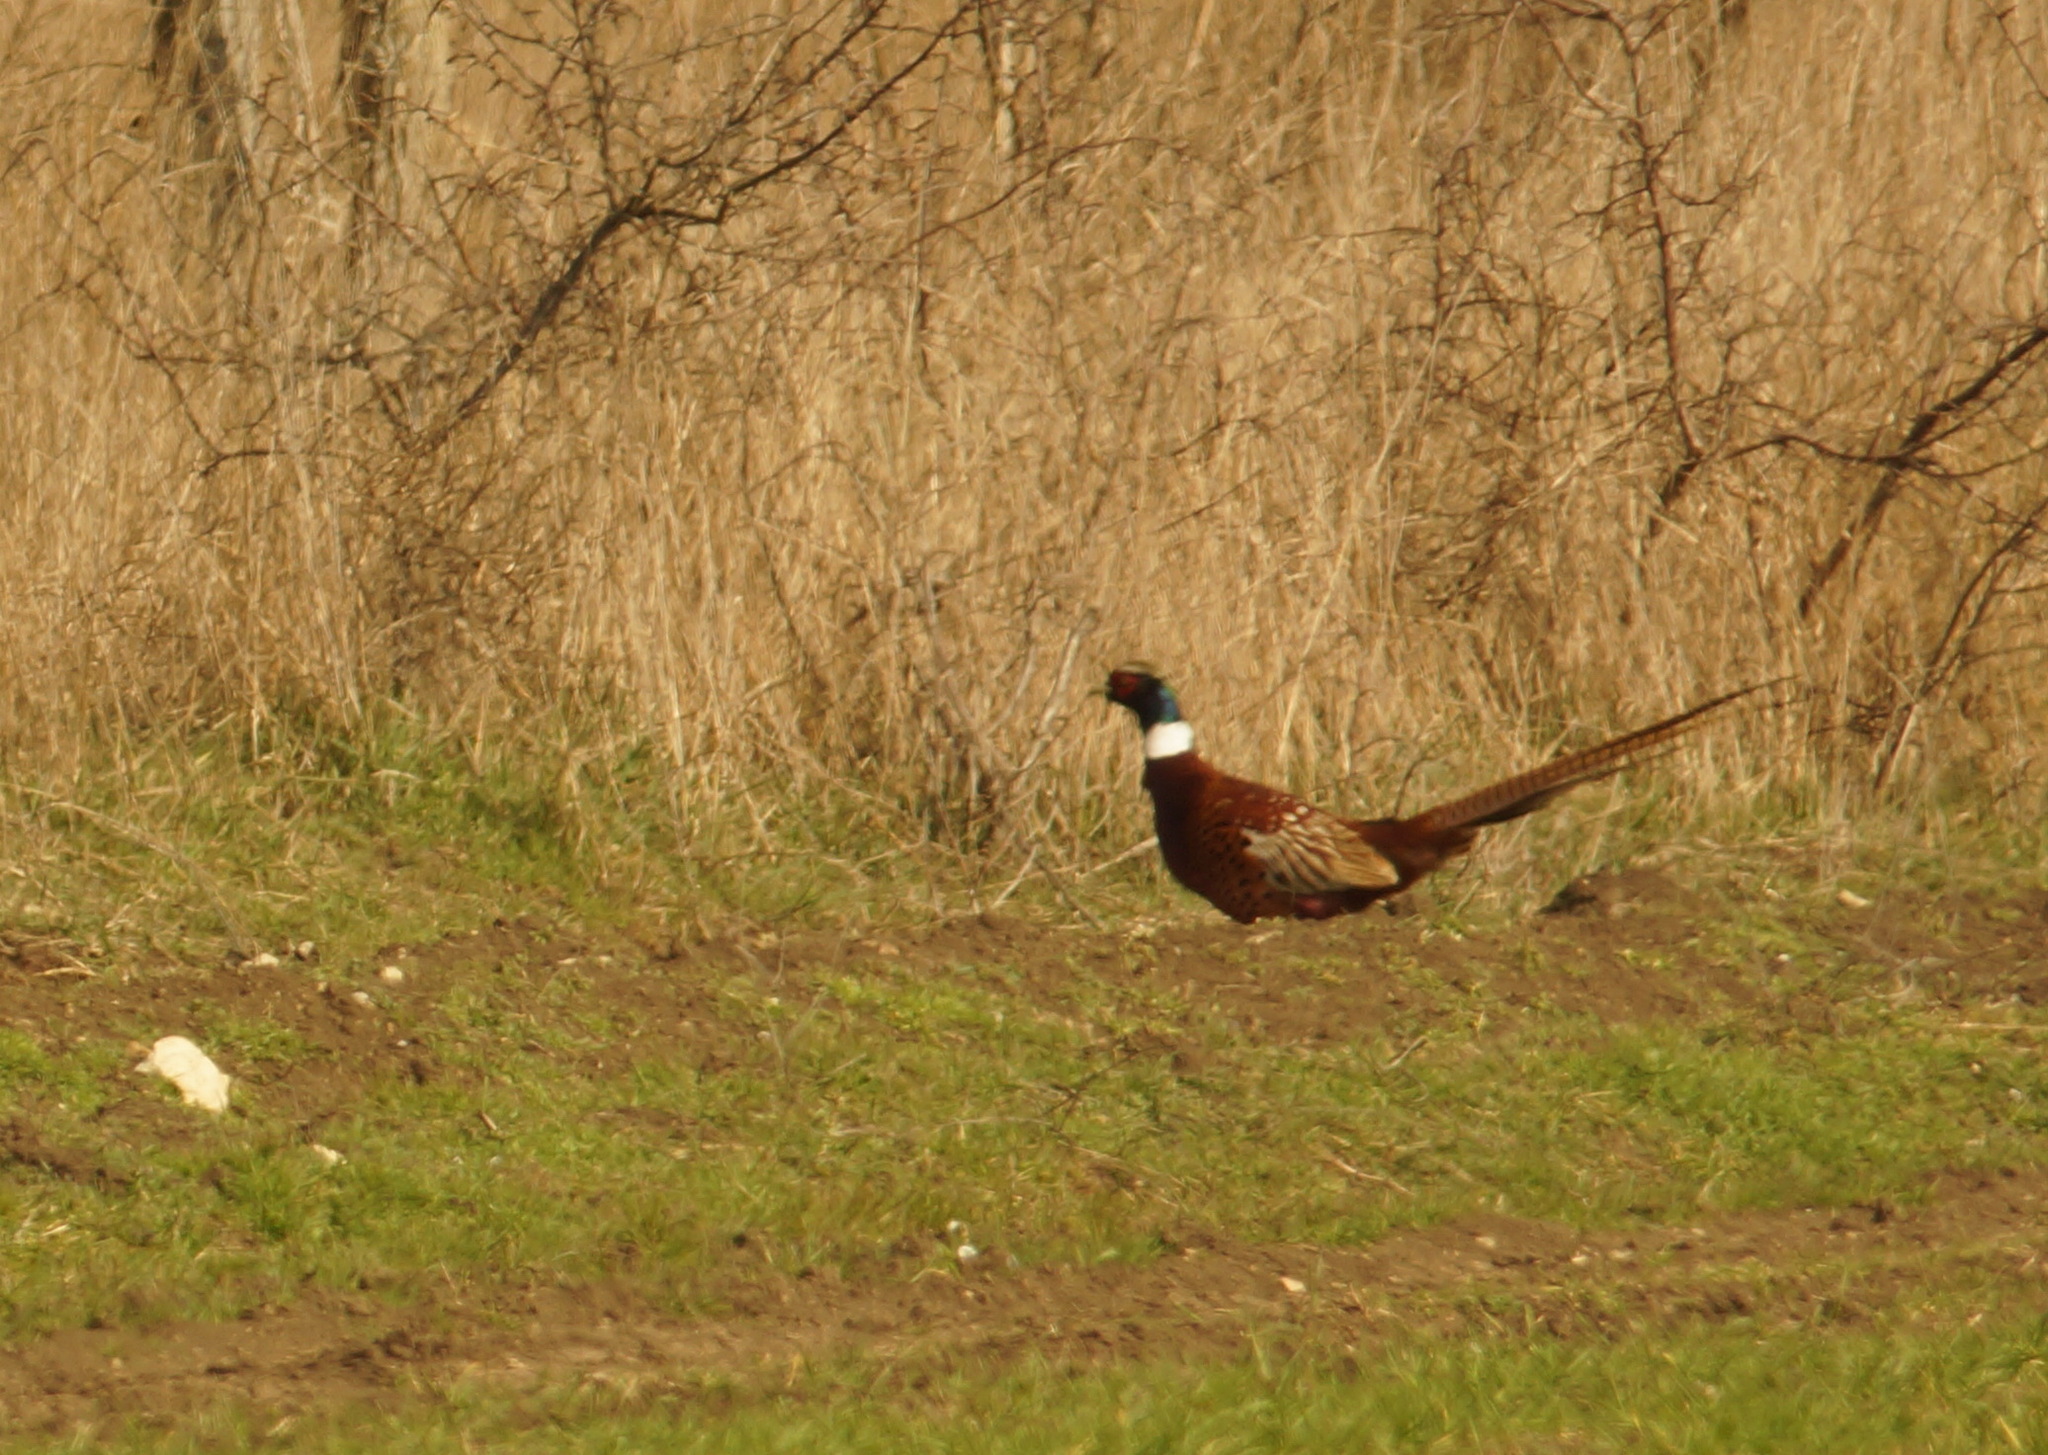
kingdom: Animalia
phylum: Chordata
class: Aves
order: Galliformes
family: Phasianidae
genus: Phasianus
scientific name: Phasianus colchicus
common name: Common pheasant
